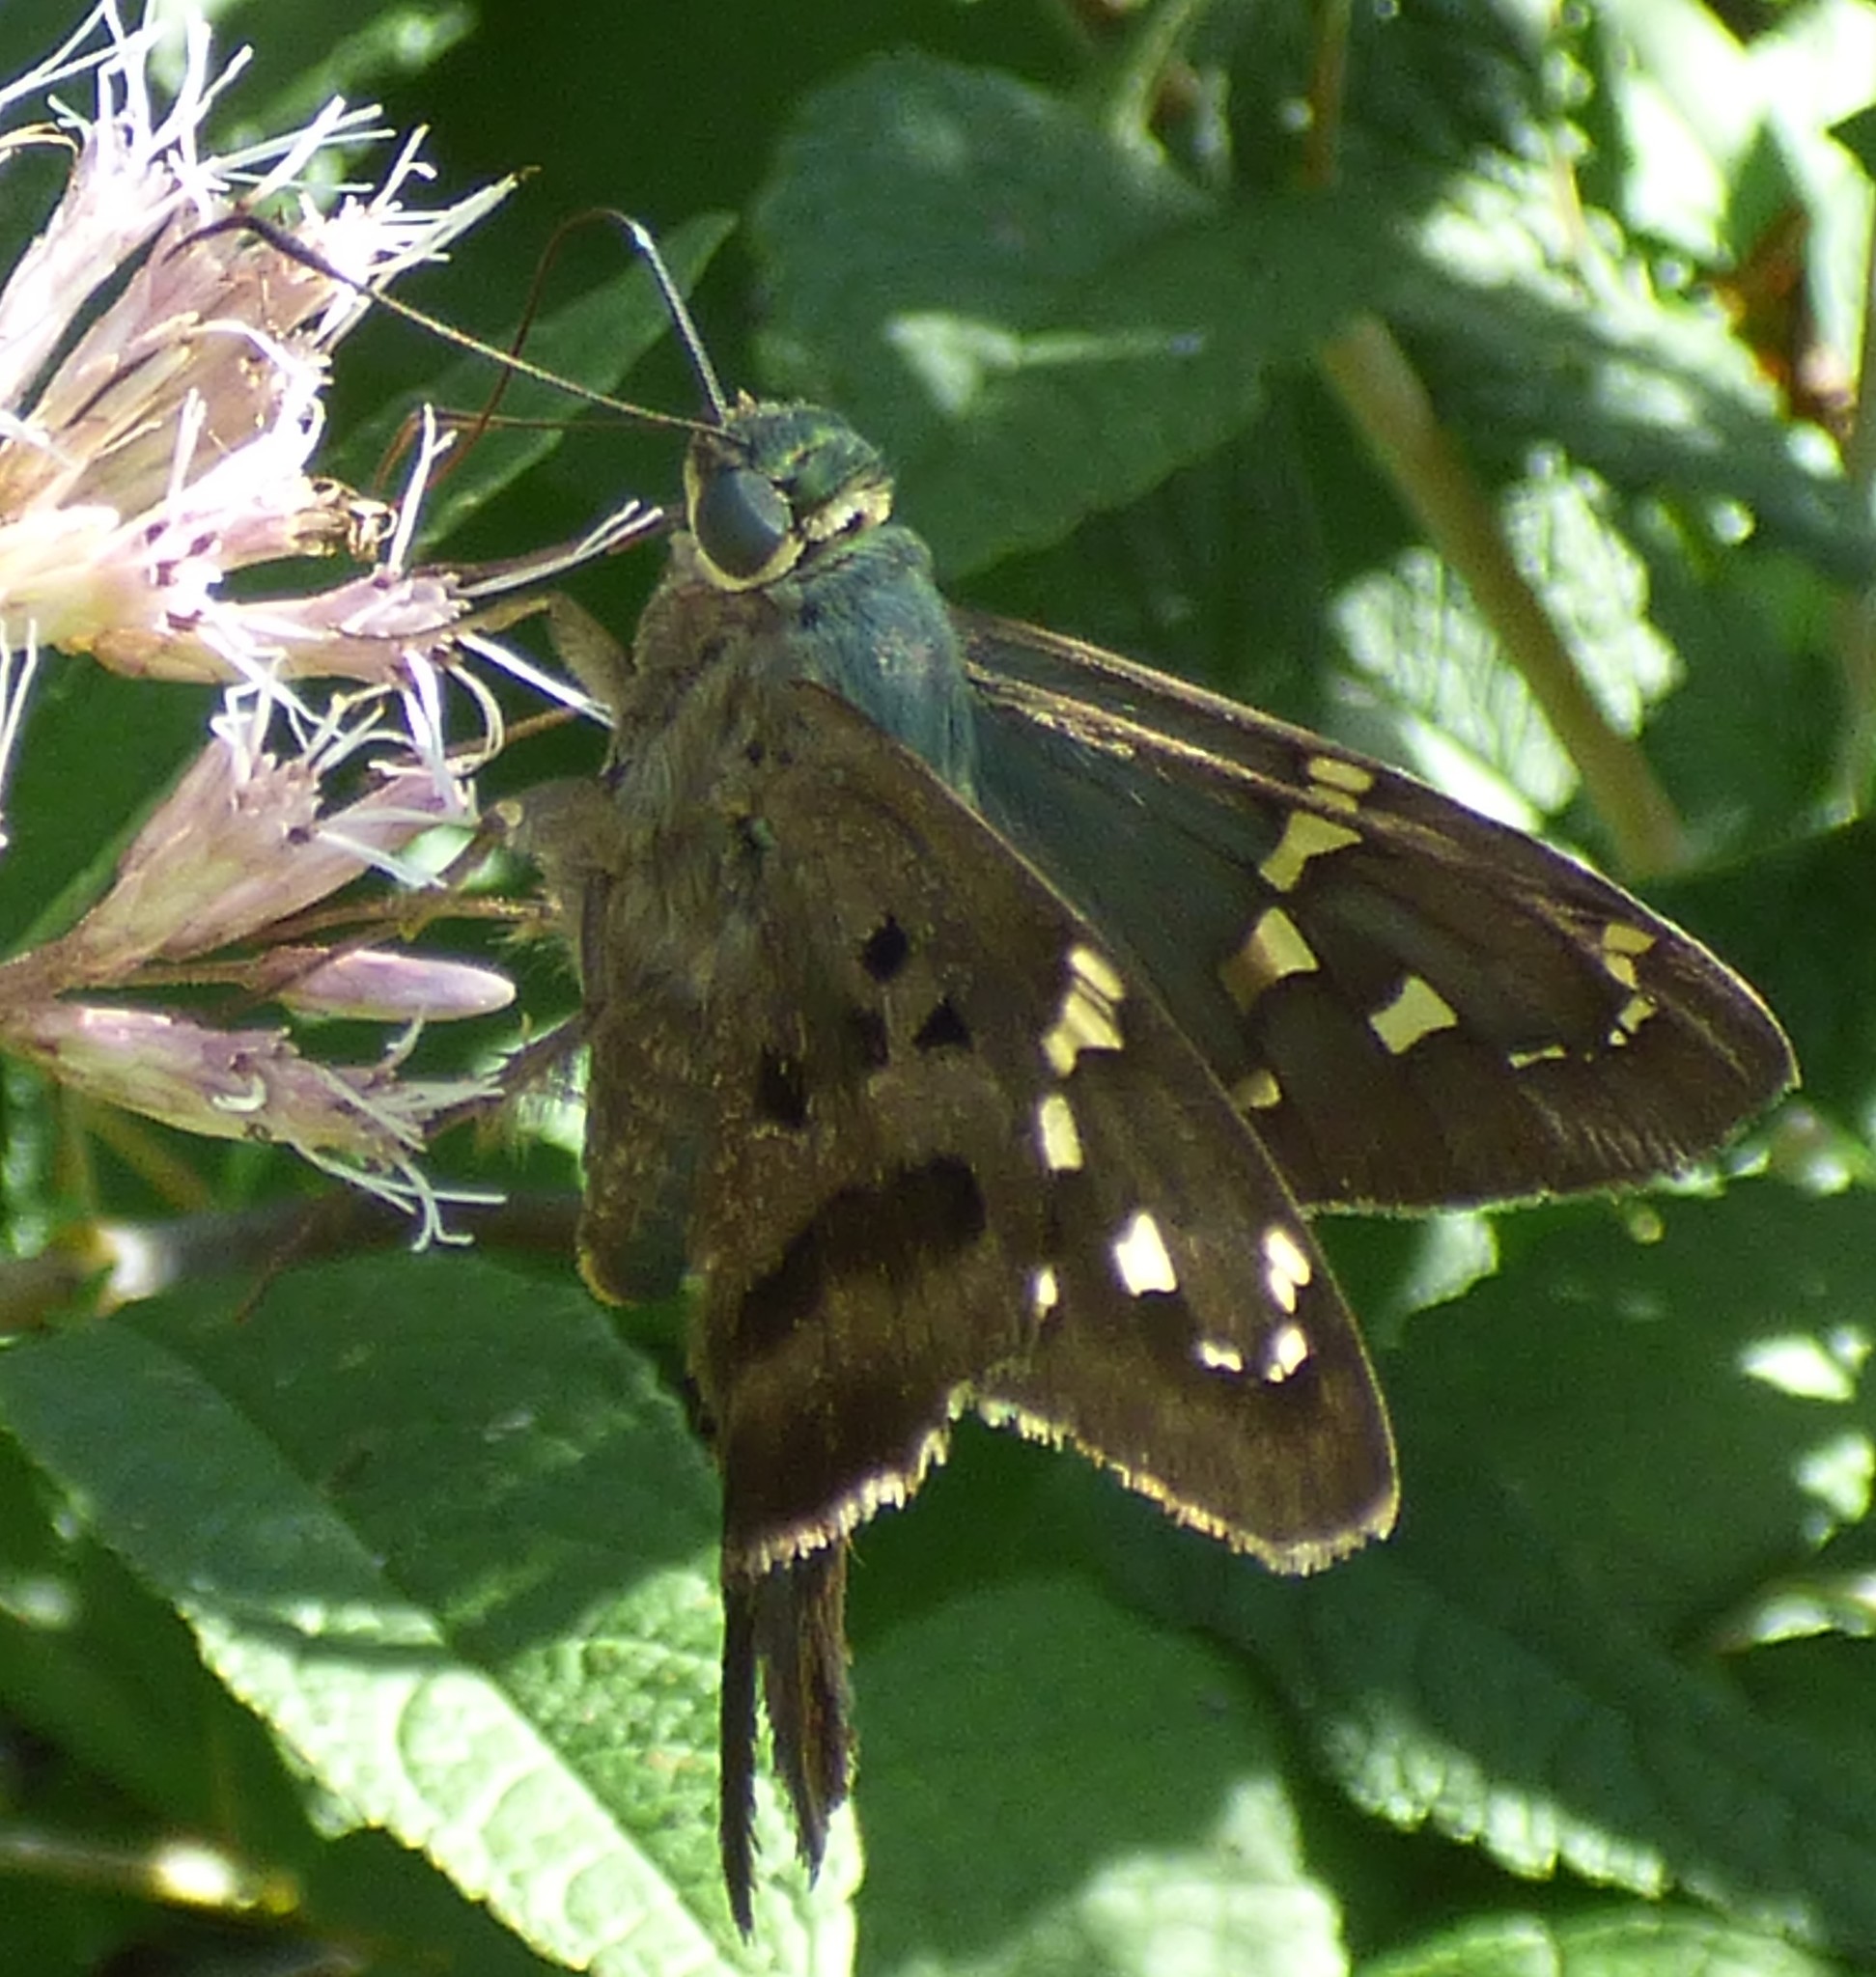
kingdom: Animalia
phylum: Arthropoda
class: Insecta
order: Lepidoptera
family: Hesperiidae
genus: Urbanus
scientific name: Urbanus proteus
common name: Long-tailed skipper
